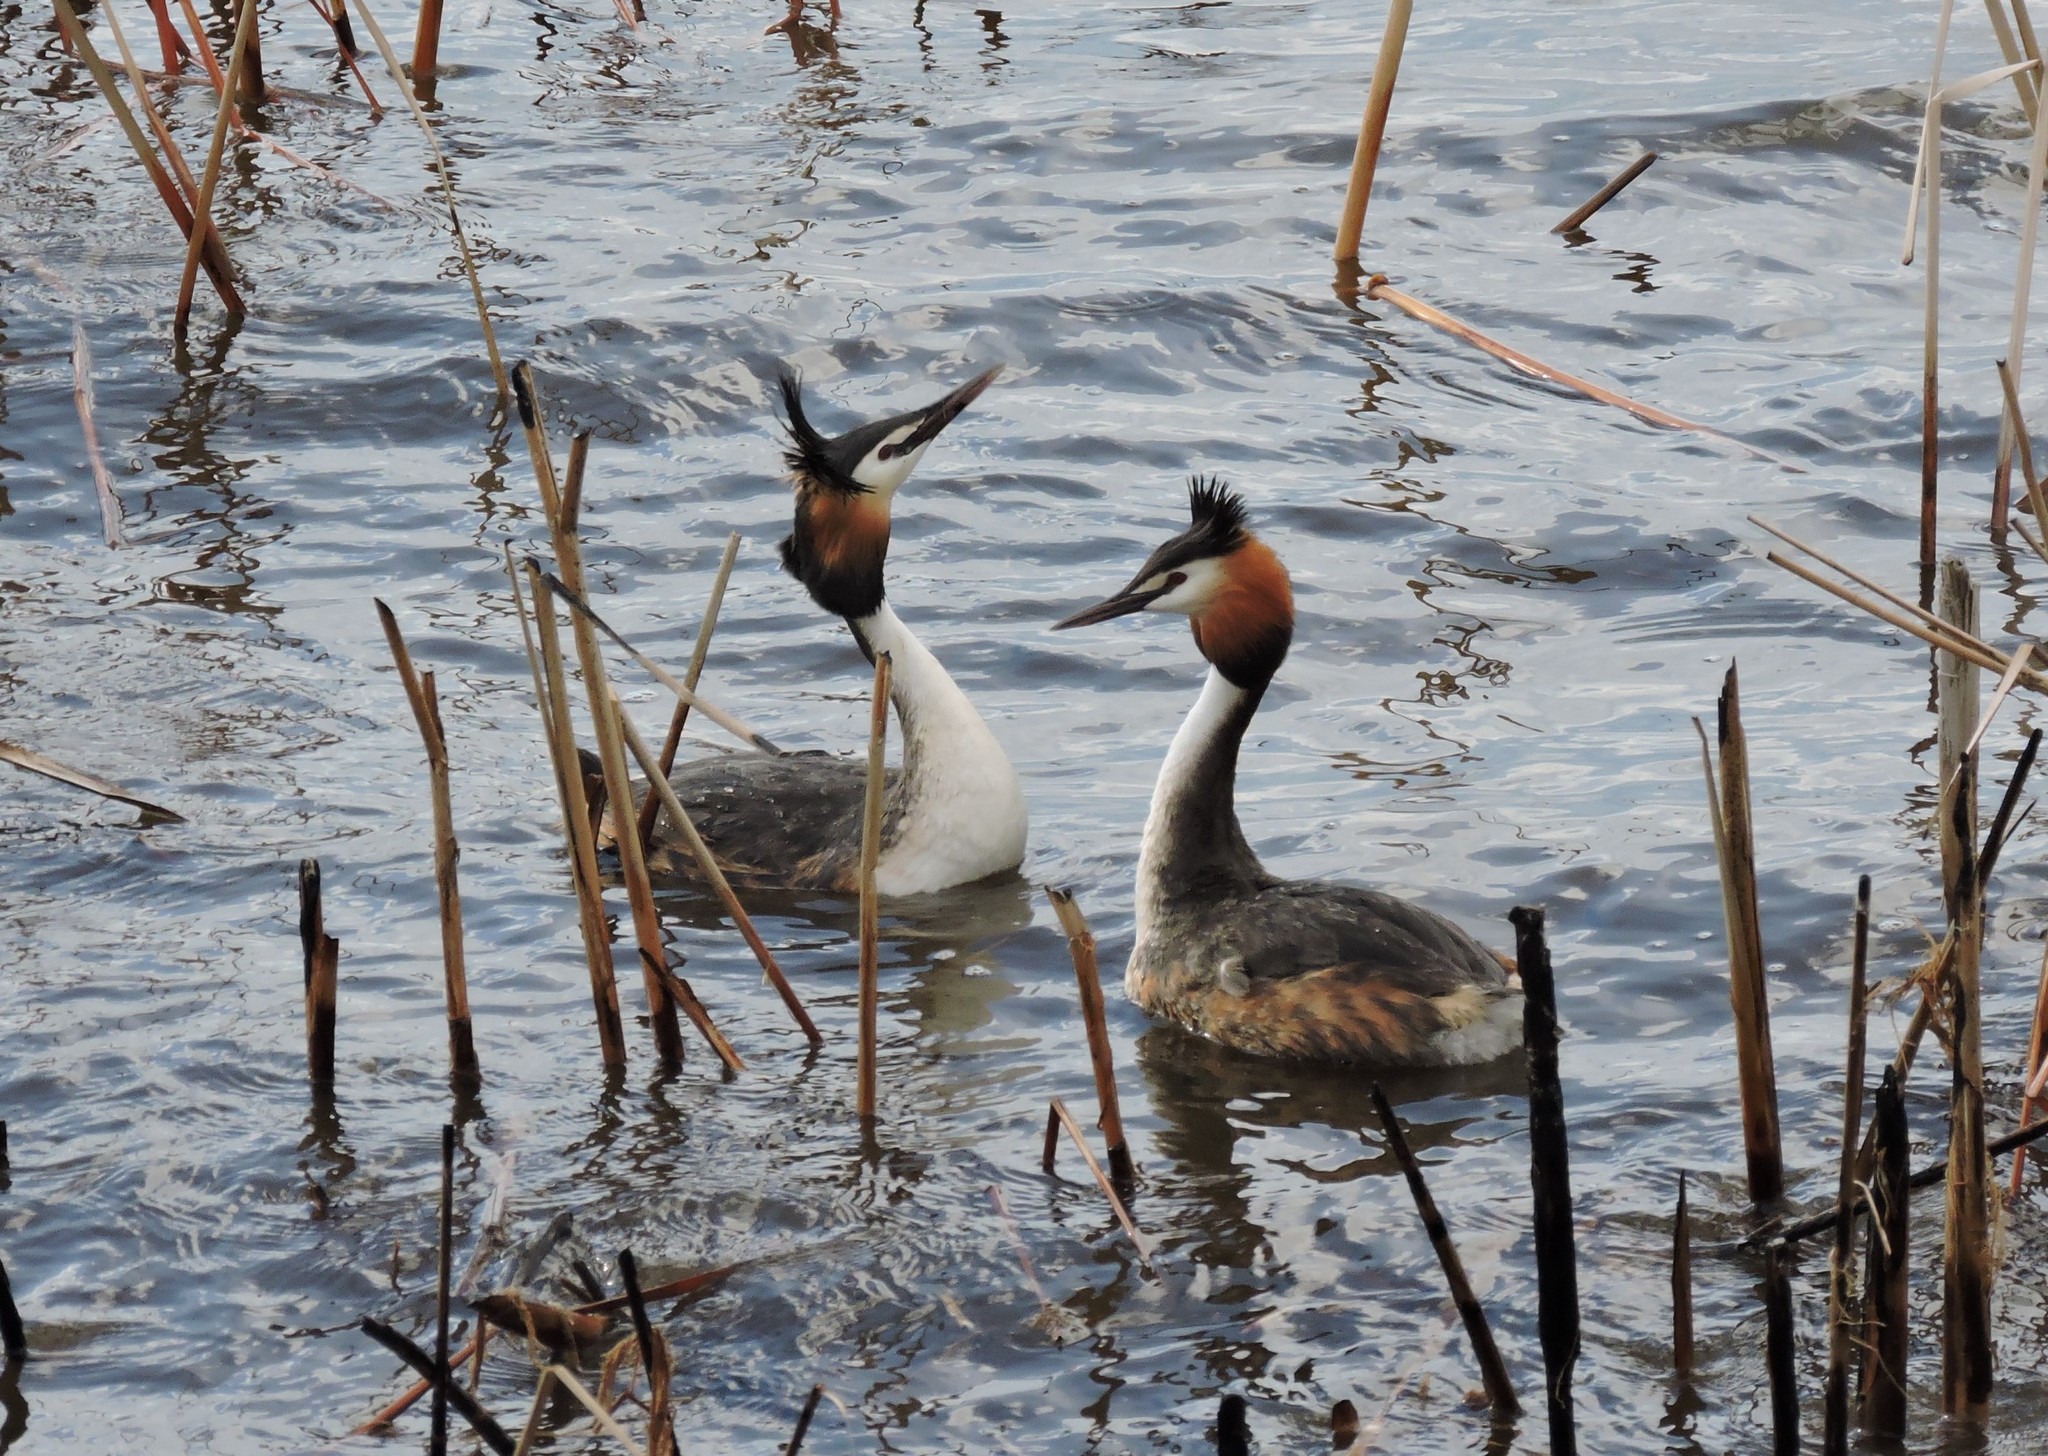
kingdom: Animalia
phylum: Chordata
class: Aves
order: Podicipediformes
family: Podicipedidae
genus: Podiceps
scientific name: Podiceps cristatus
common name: Great crested grebe
